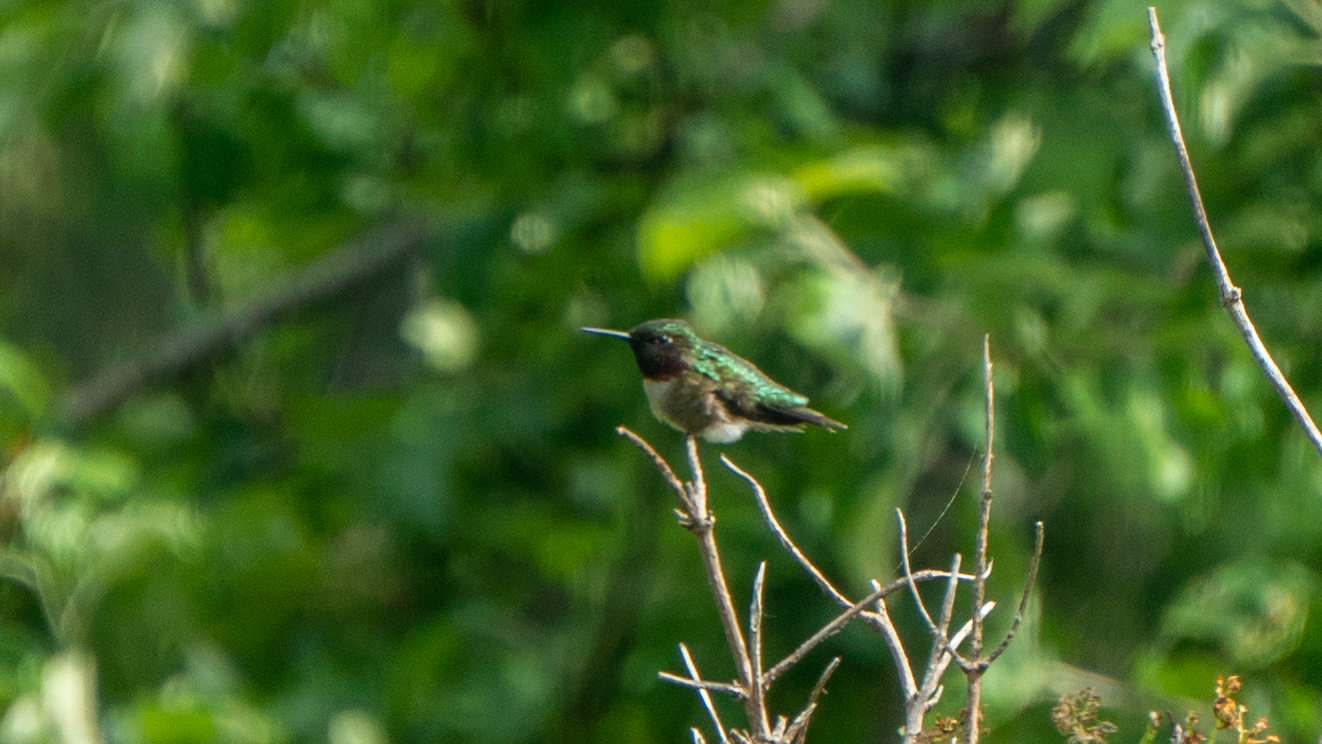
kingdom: Animalia
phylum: Chordata
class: Aves
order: Apodiformes
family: Trochilidae
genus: Archilochus
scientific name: Archilochus colubris
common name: Ruby-throated hummingbird
